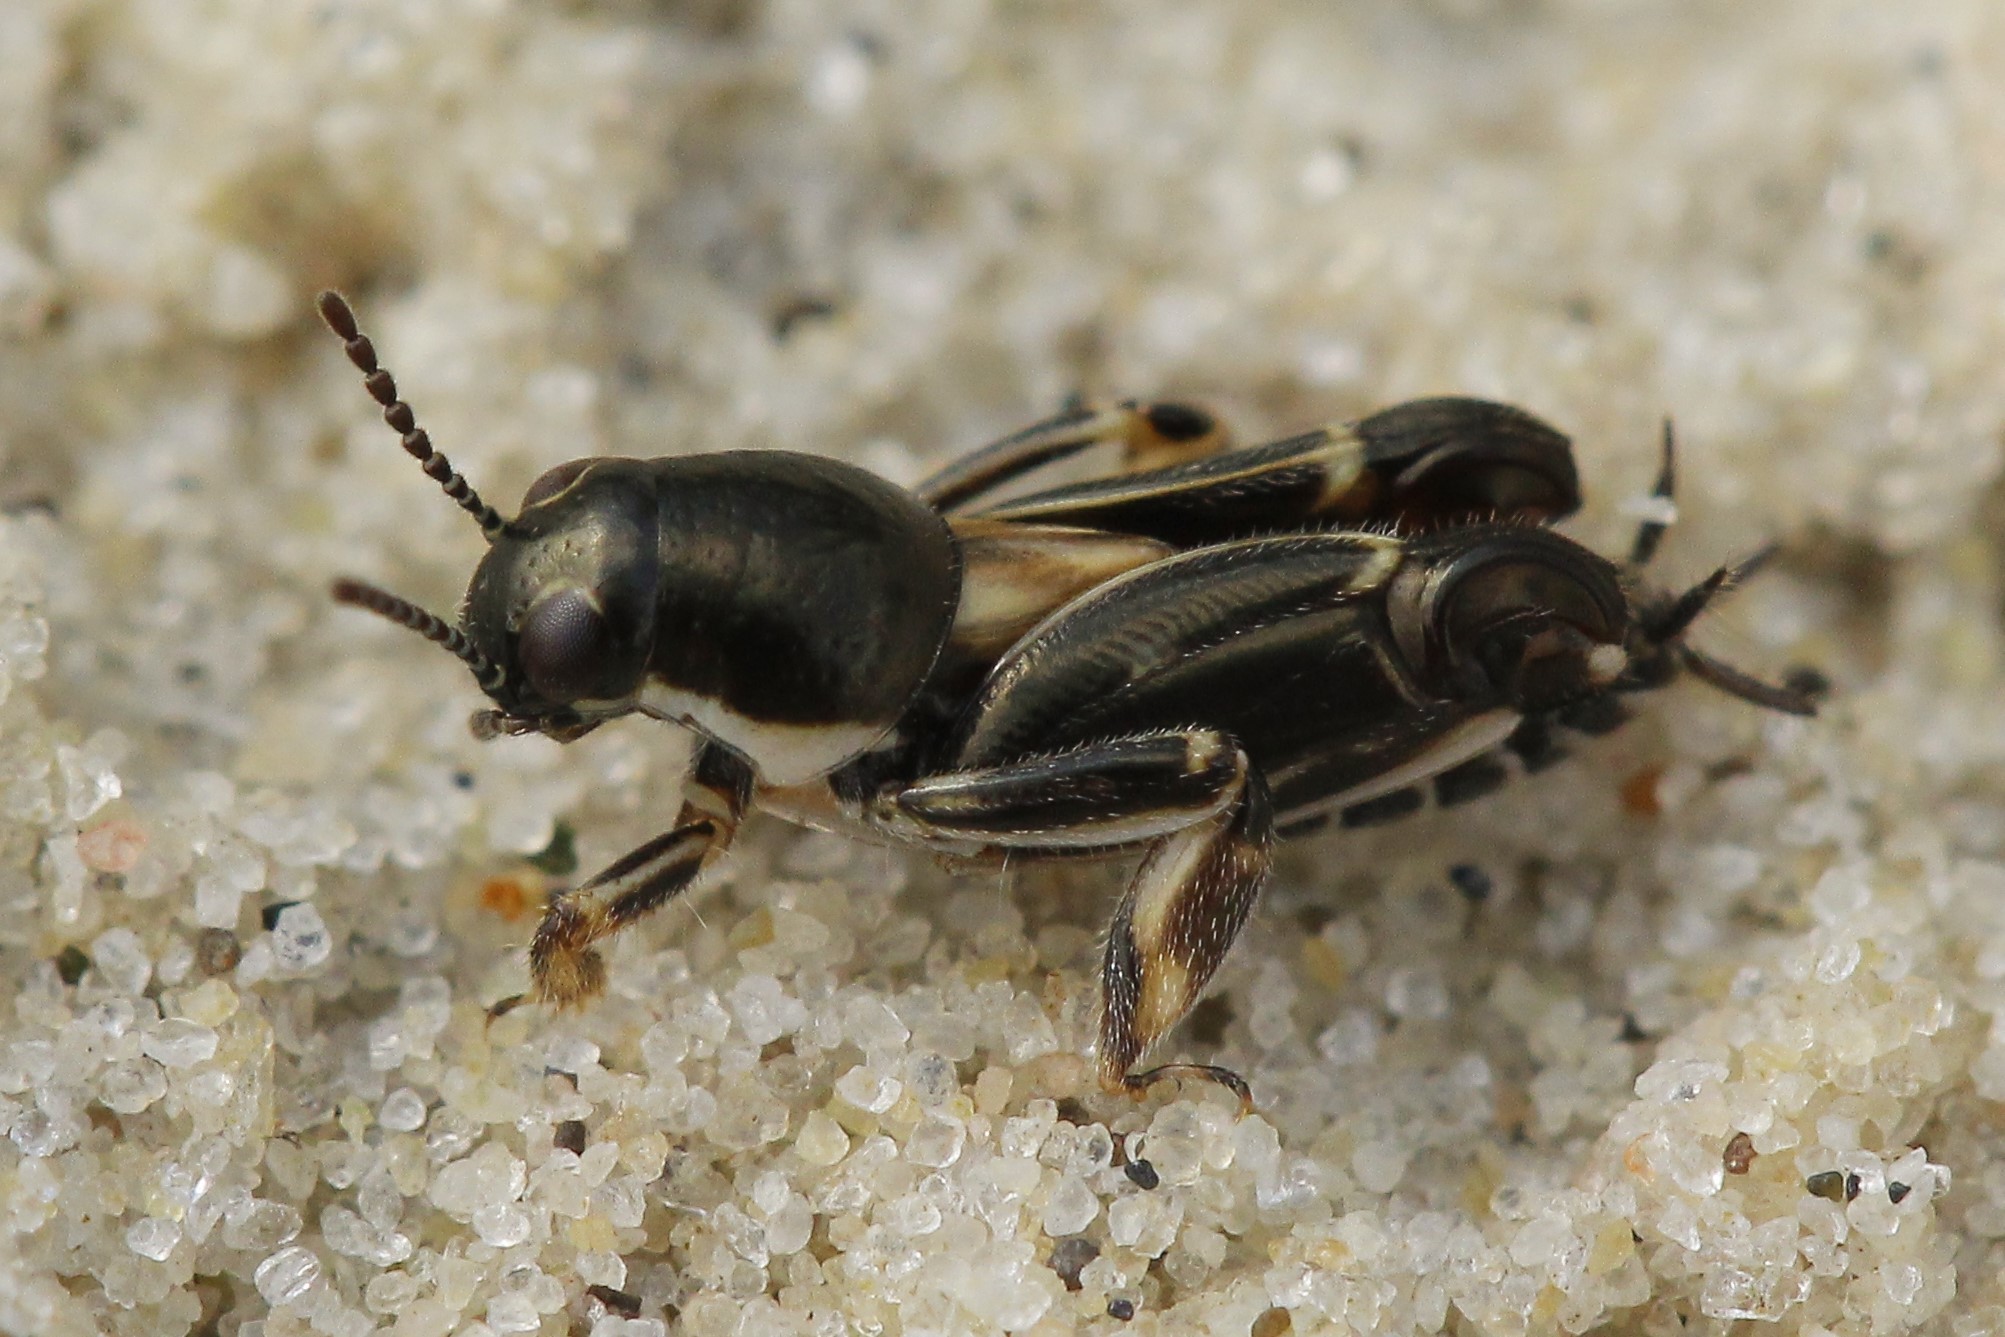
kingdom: Animalia
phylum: Arthropoda
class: Insecta
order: Orthoptera
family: Tridactylidae
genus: Xya
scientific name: Xya variegata
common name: Le tridactyle panaché
